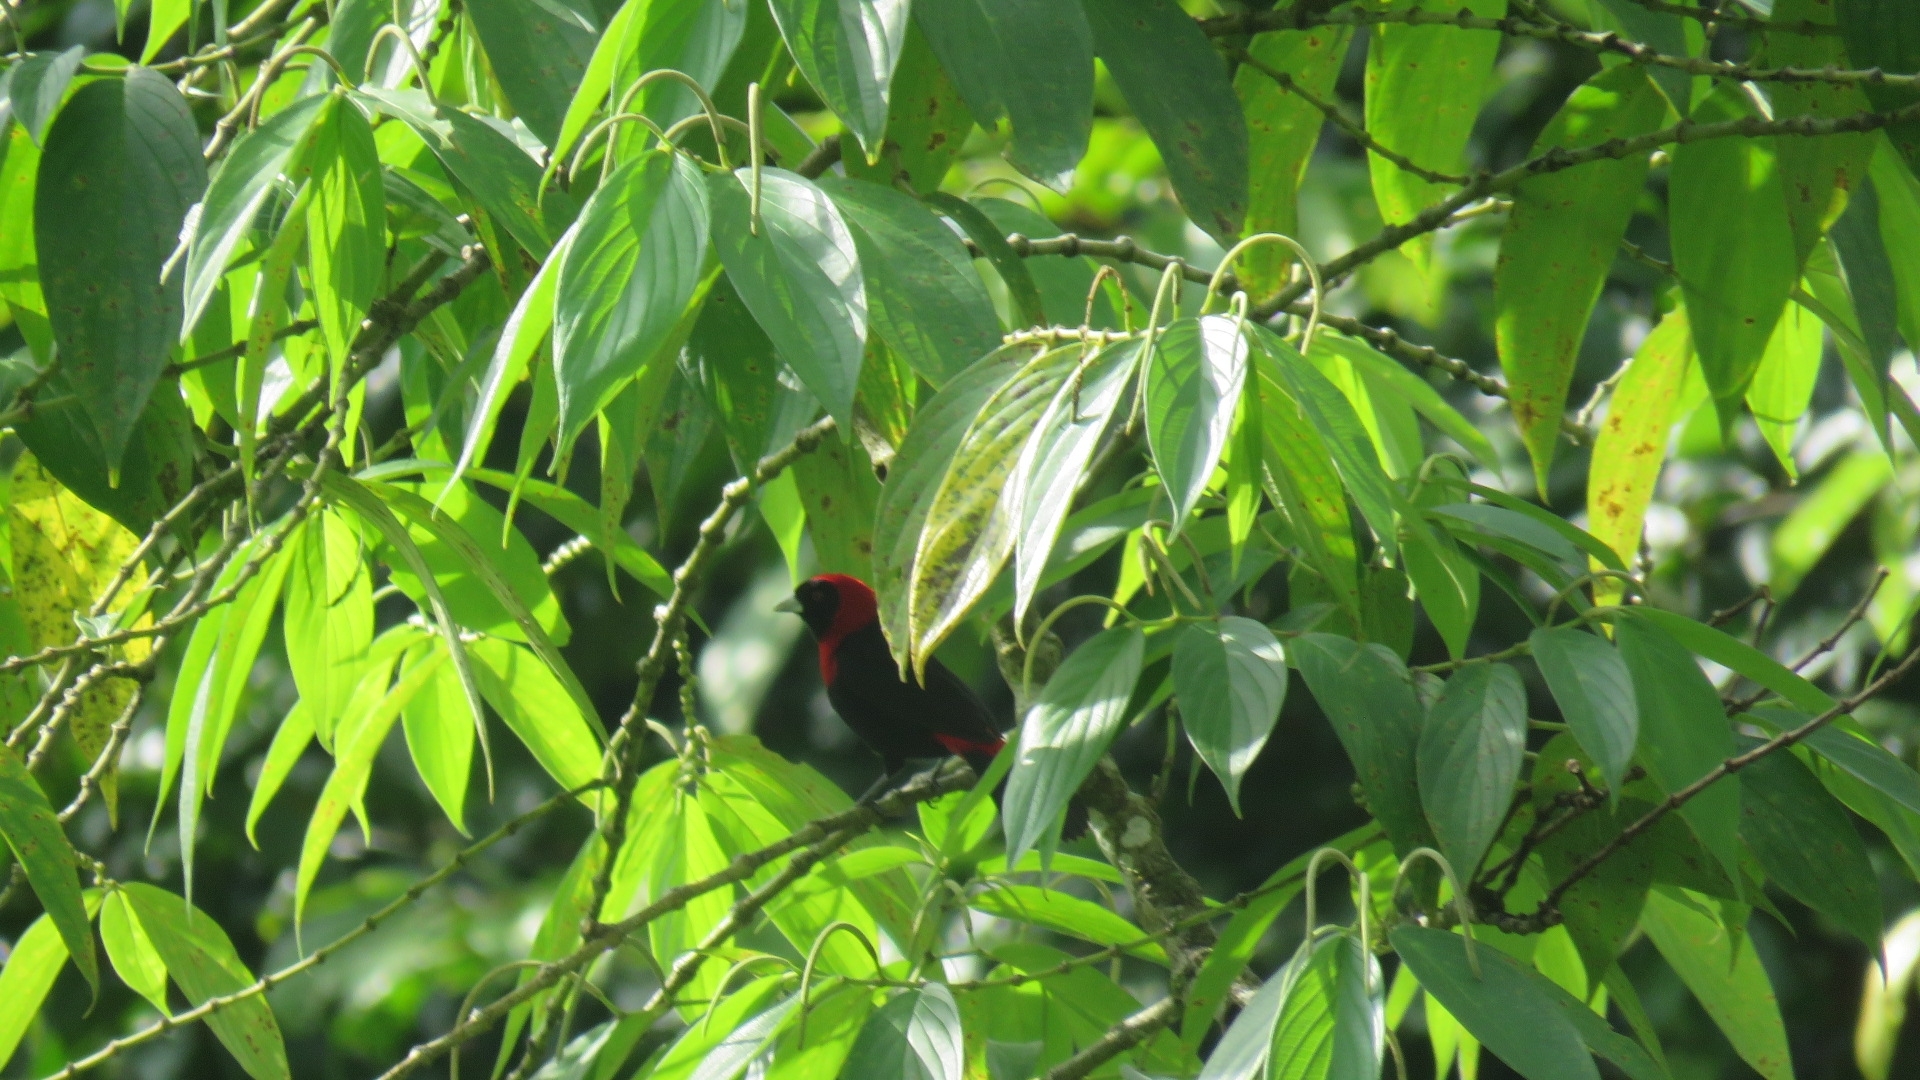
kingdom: Animalia
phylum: Chordata
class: Aves
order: Passeriformes
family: Thraupidae
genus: Ramphocelus
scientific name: Ramphocelus sanguinolentus
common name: Crimson-collared tanager
